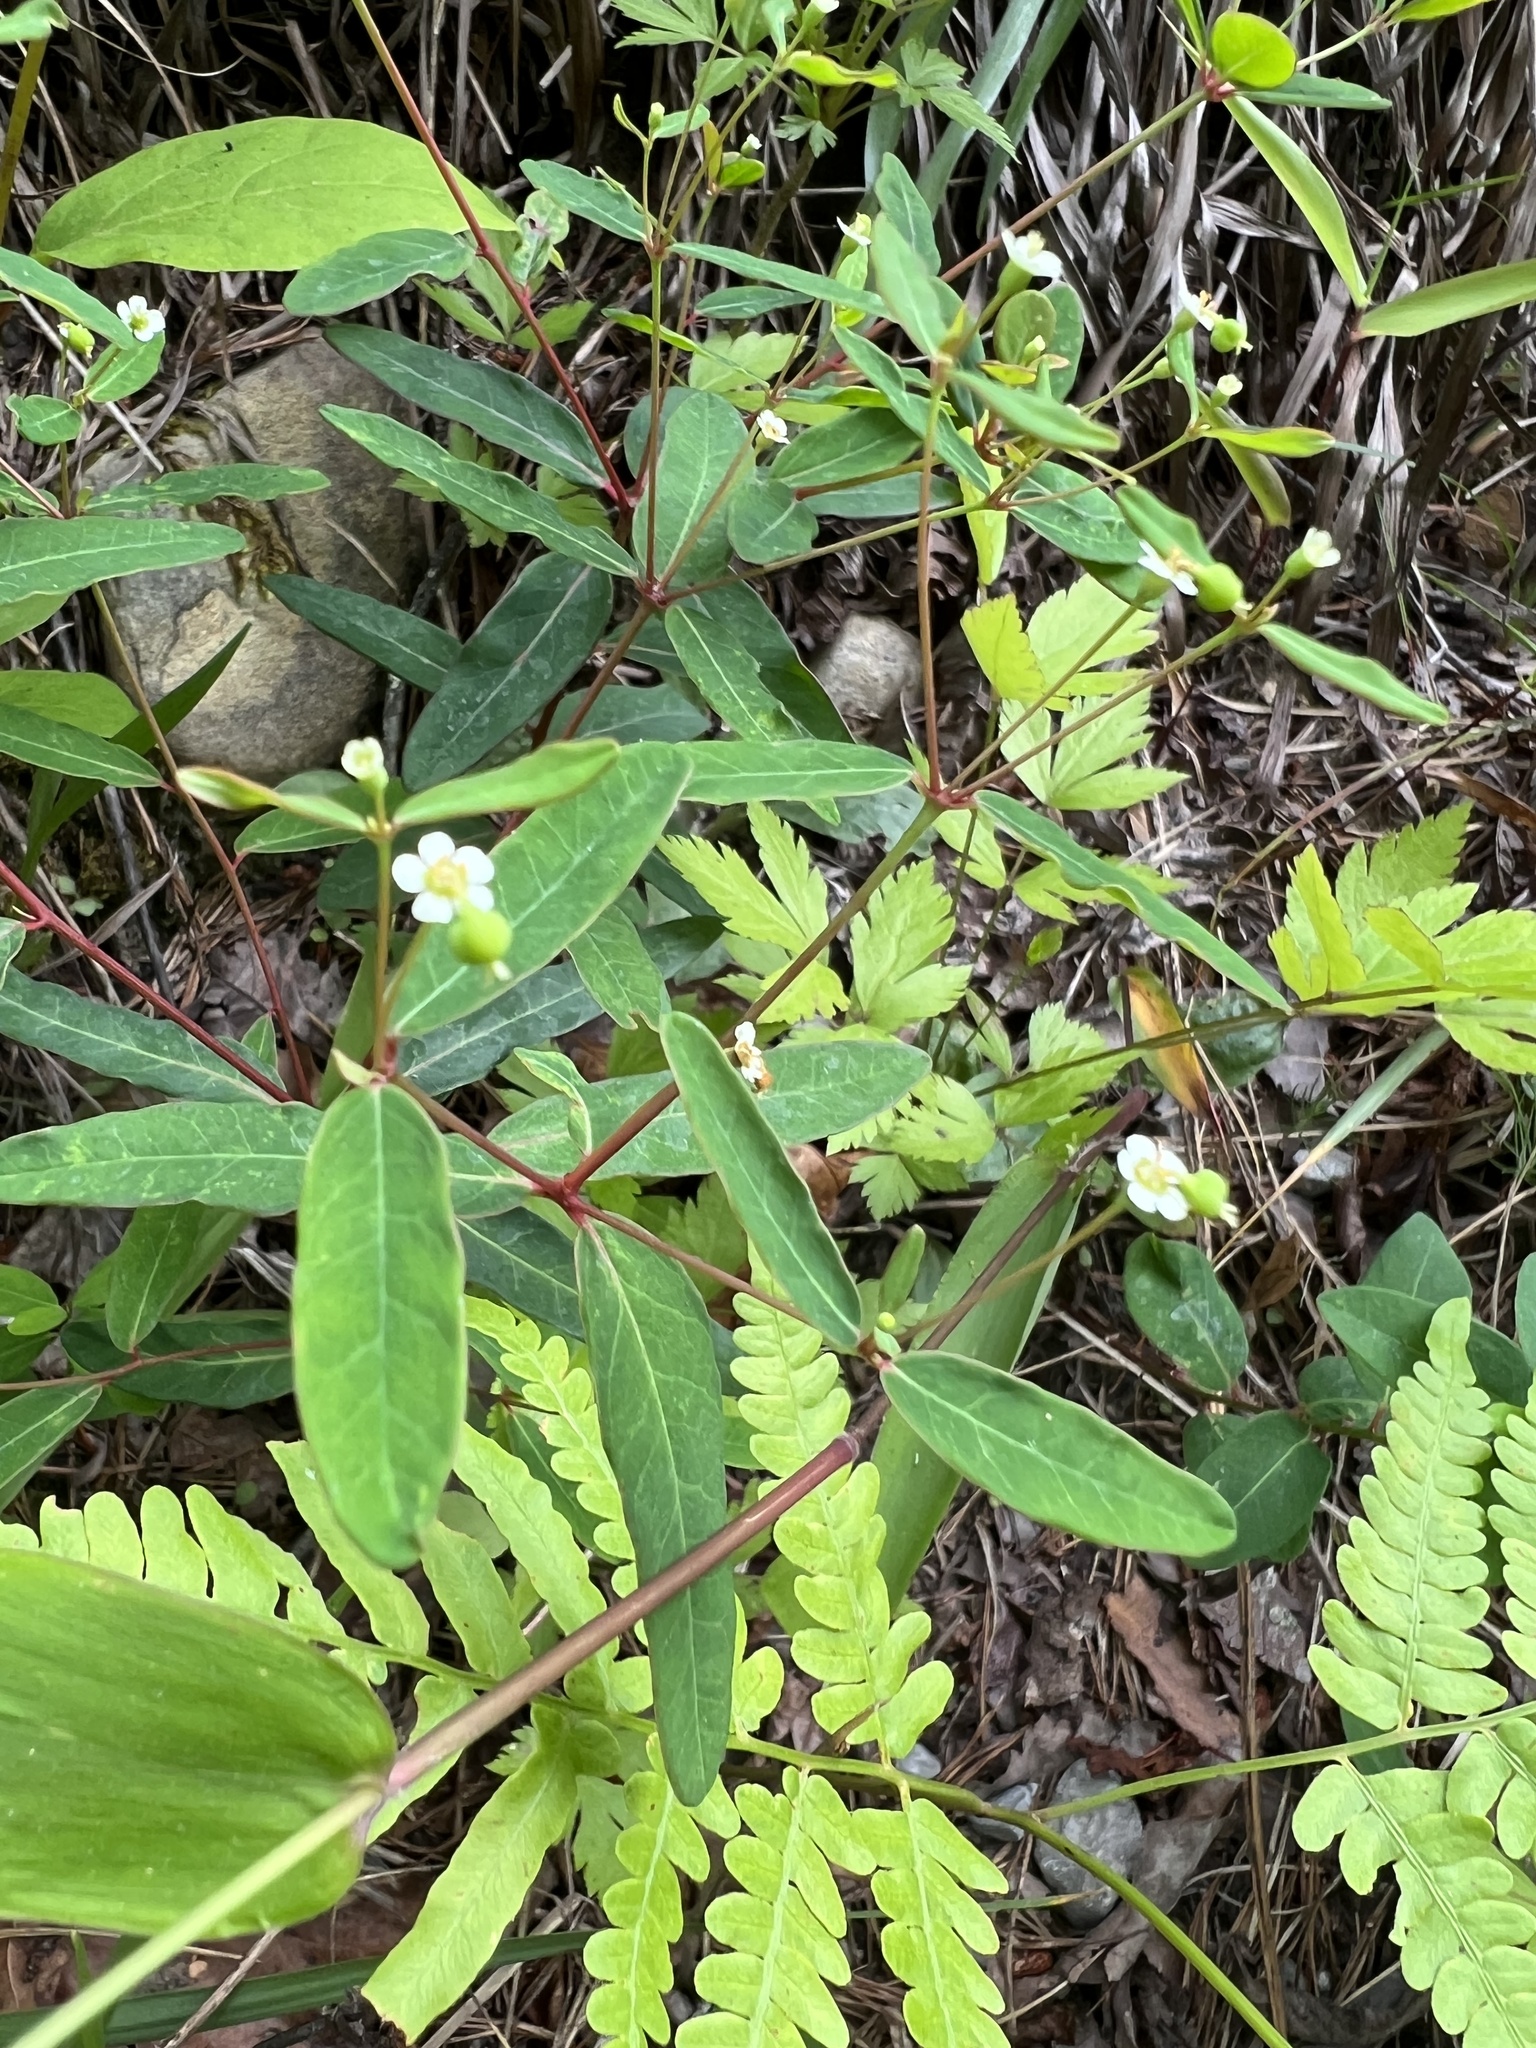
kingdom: Plantae
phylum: Tracheophyta
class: Magnoliopsida
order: Malpighiales
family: Euphorbiaceae
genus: Euphorbia
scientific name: Euphorbia pubentissima
